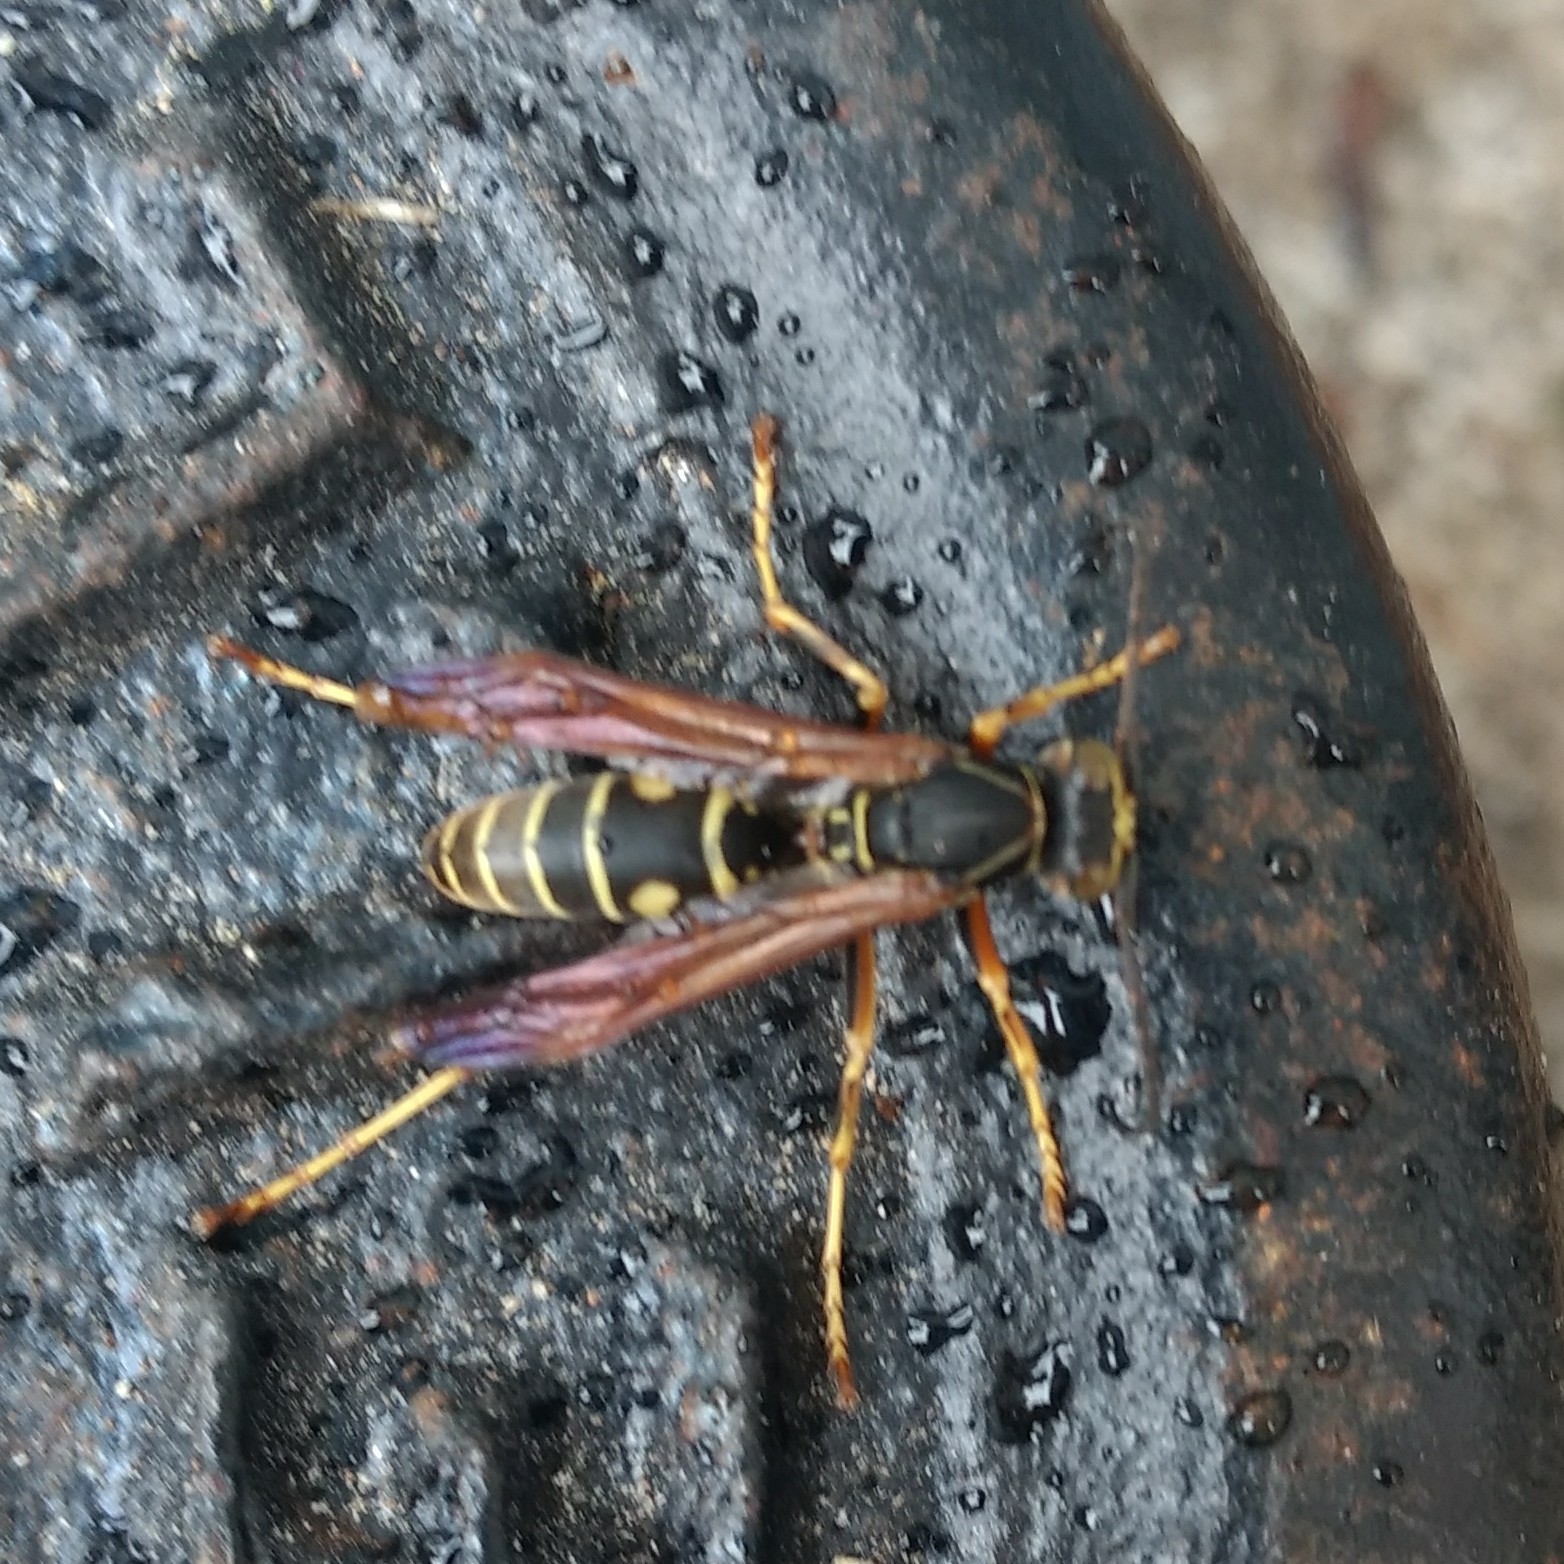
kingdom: Animalia
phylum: Arthropoda
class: Insecta
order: Hymenoptera
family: Eumenidae
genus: Polistes
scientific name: Polistes fuscatus
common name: Dark paper wasp
